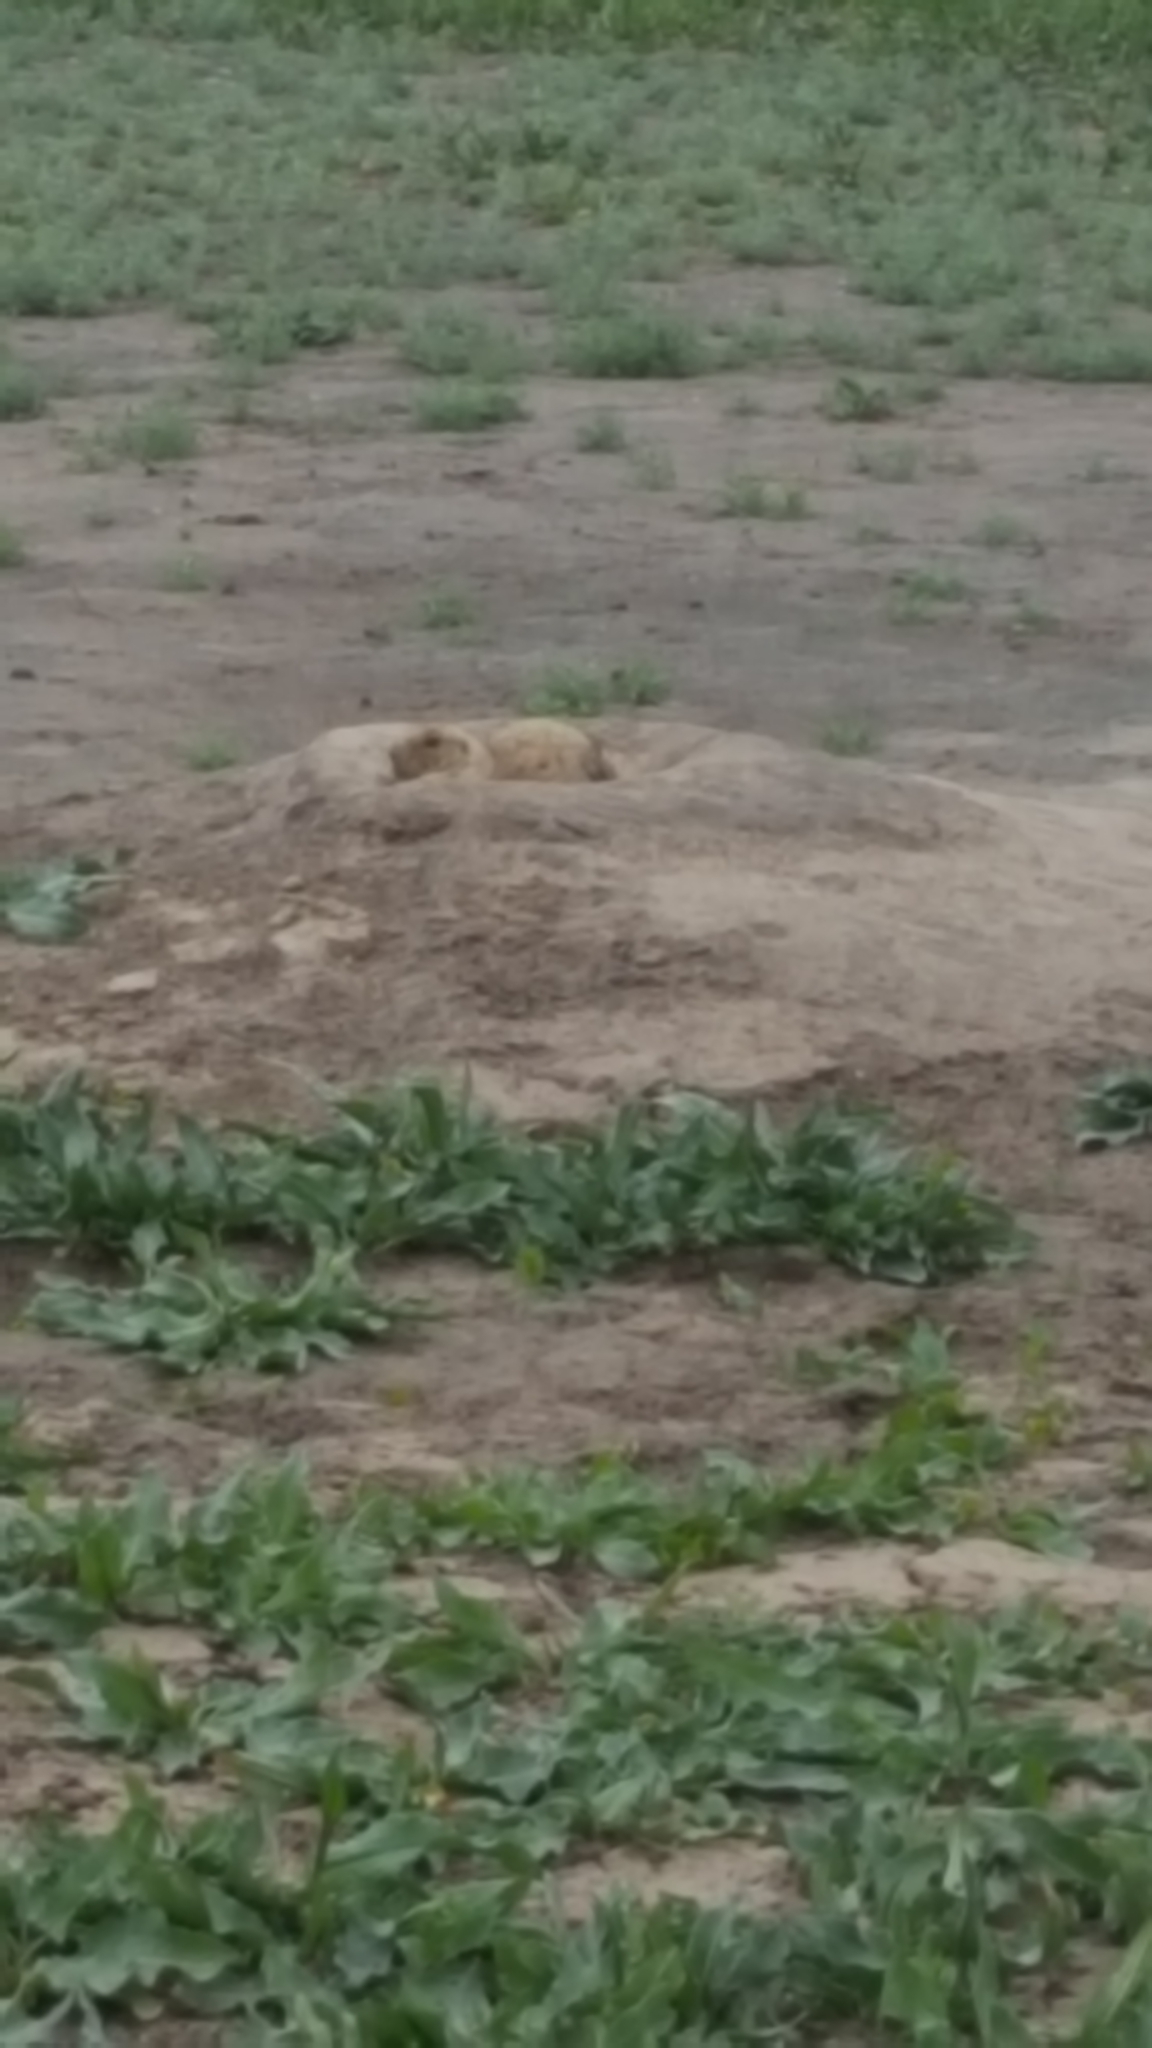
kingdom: Animalia
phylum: Chordata
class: Mammalia
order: Rodentia
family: Sciuridae
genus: Cynomys
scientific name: Cynomys ludovicianus
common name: Black-tailed prairie dog
